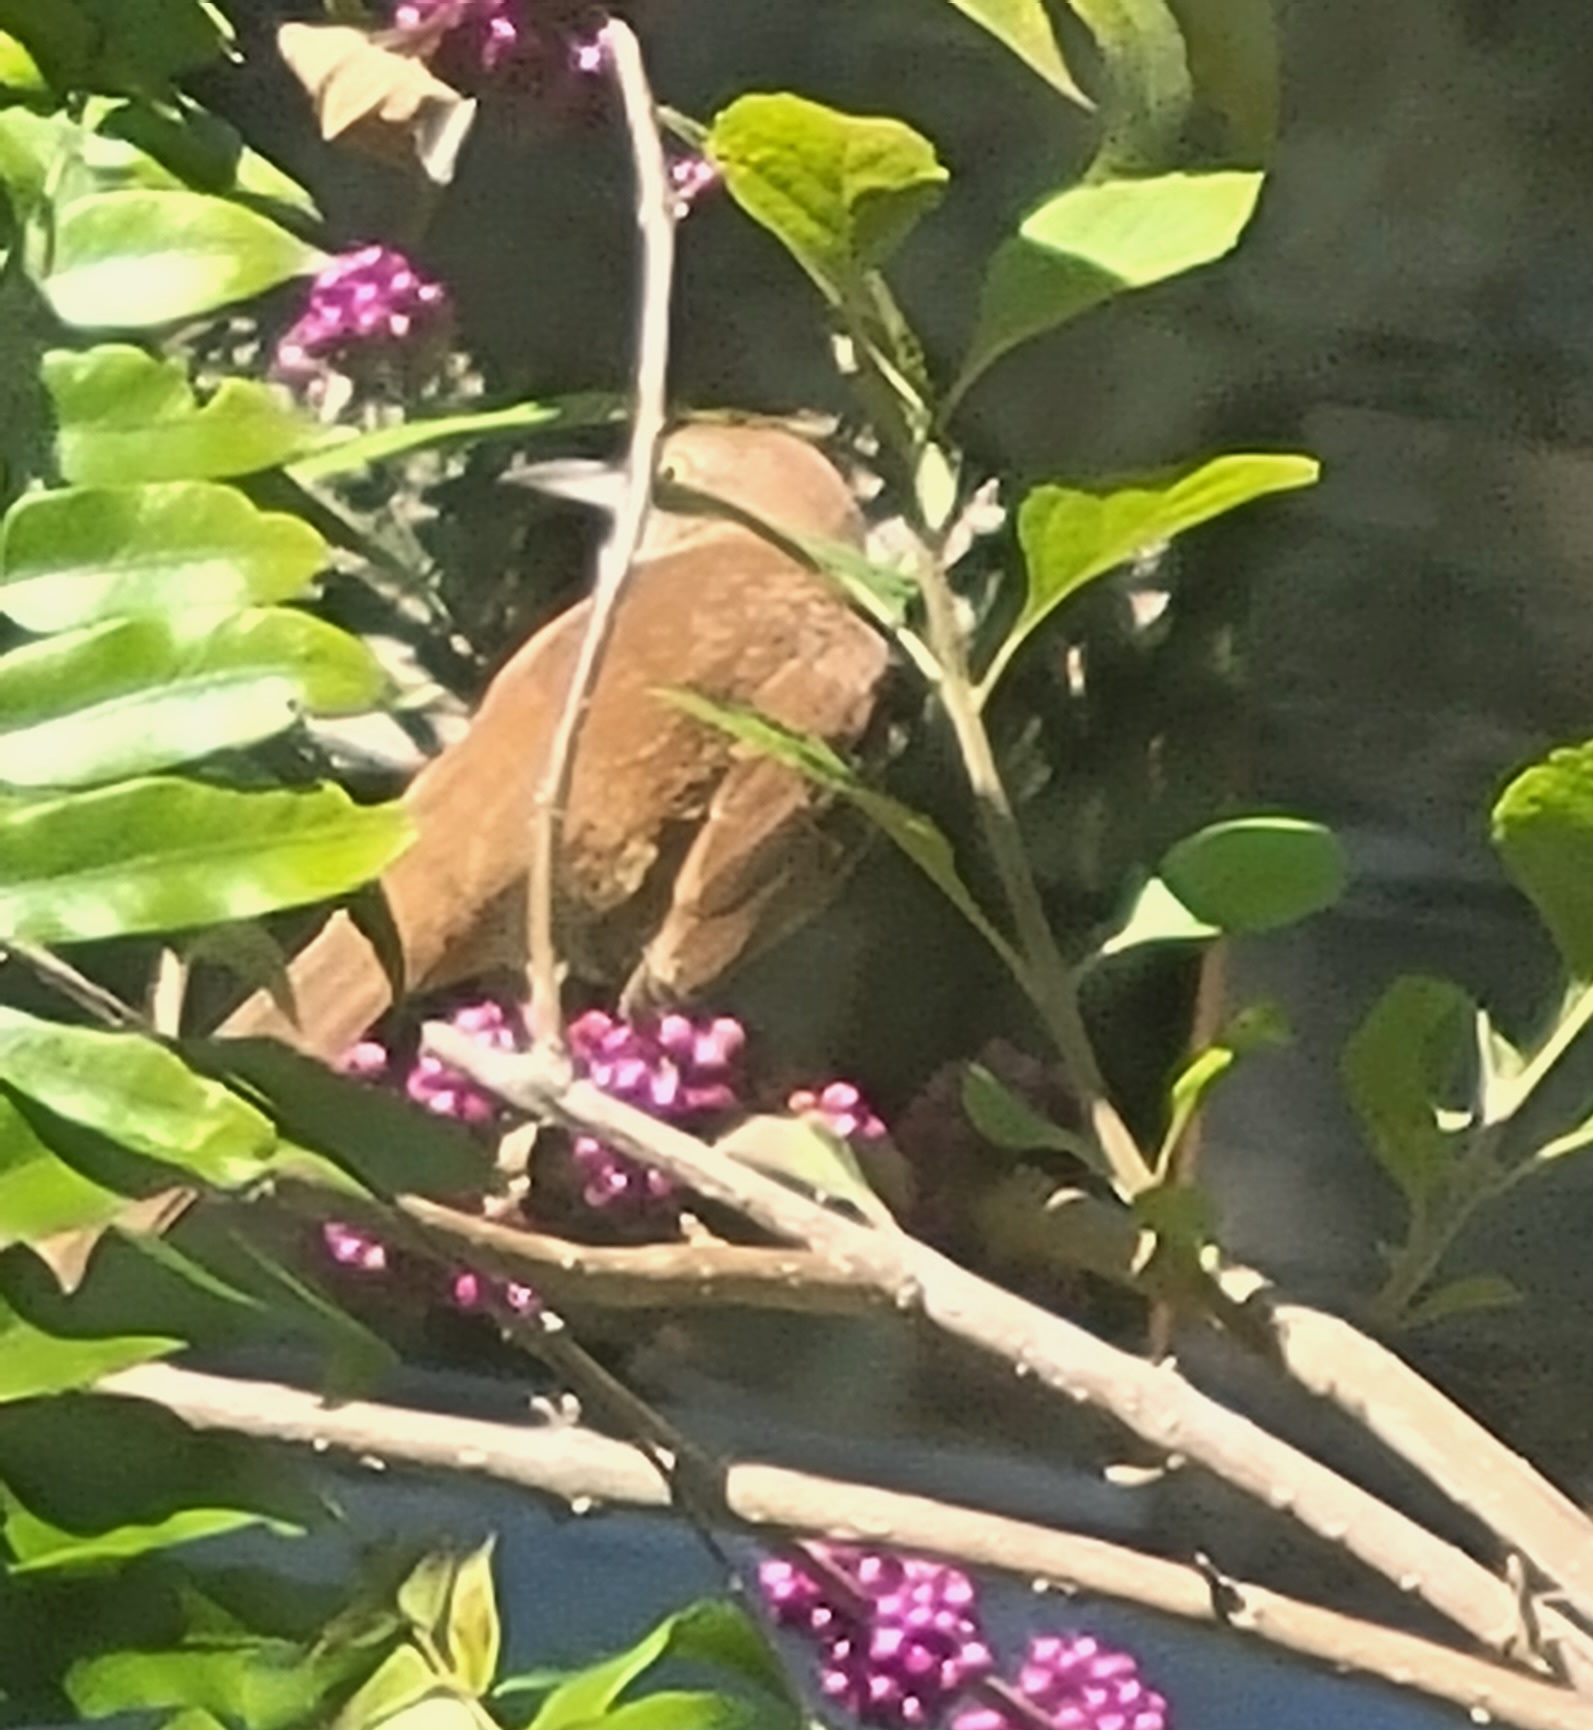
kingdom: Animalia
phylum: Chordata
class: Aves
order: Passeriformes
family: Mimidae
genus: Toxostoma
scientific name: Toxostoma rufum
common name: Brown thrasher
